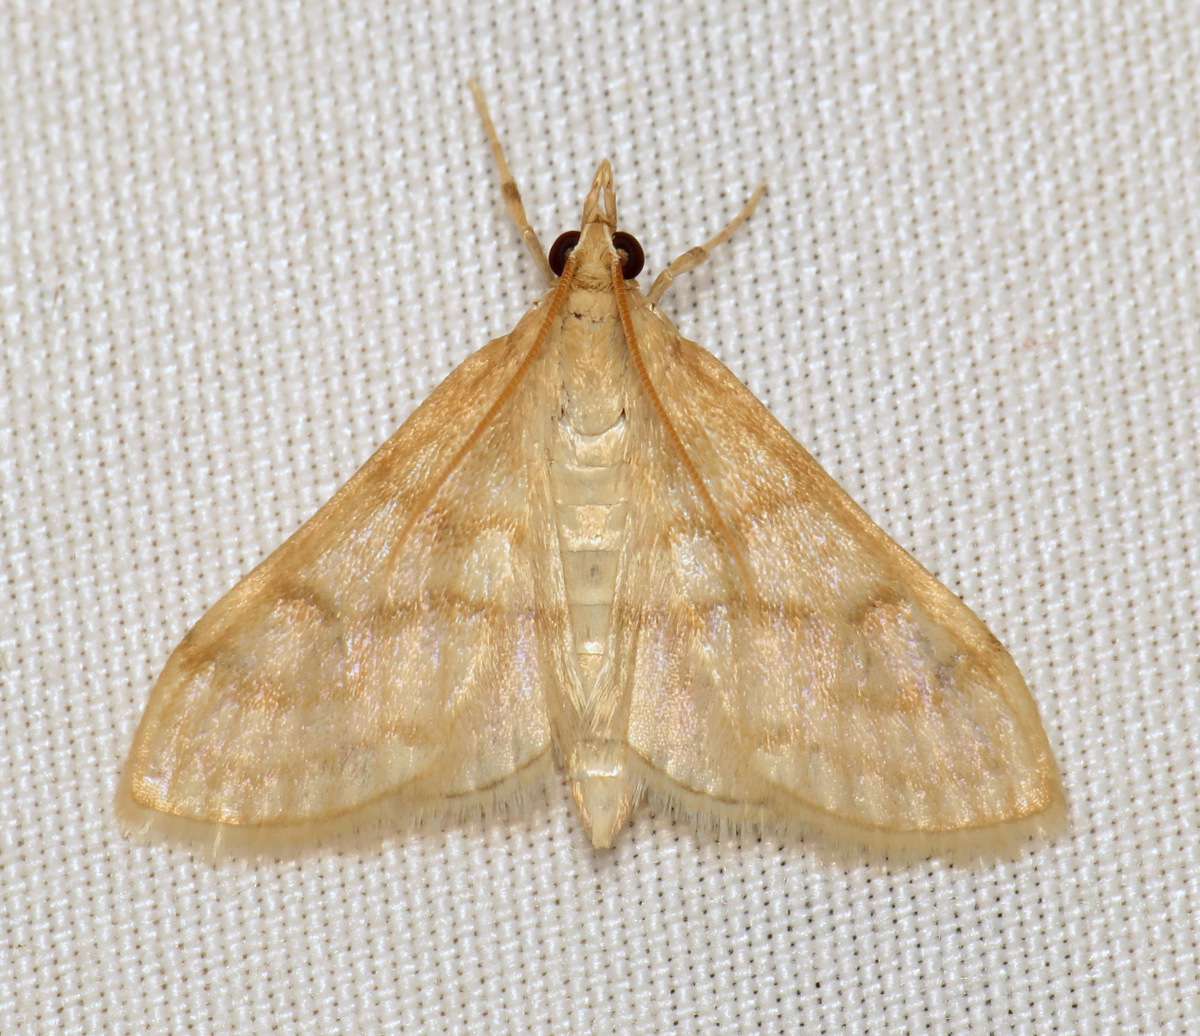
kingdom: Animalia
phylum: Arthropoda
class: Insecta
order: Lepidoptera
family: Crambidae
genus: Paracorsia
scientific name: Paracorsia repandalis
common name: Mullein moth
